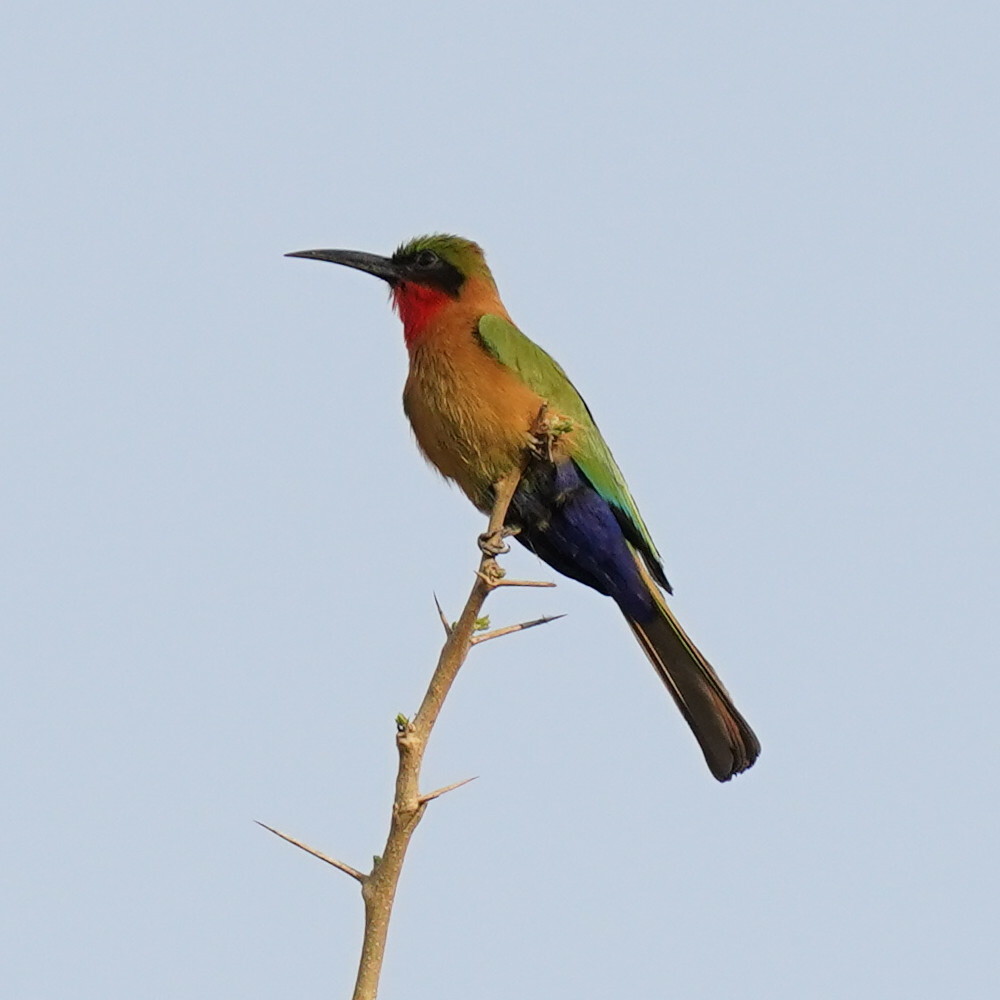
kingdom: Animalia
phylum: Chordata
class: Aves
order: Coraciiformes
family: Meropidae
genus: Merops
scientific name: Merops bulocki
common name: Red-throated bee-eater
